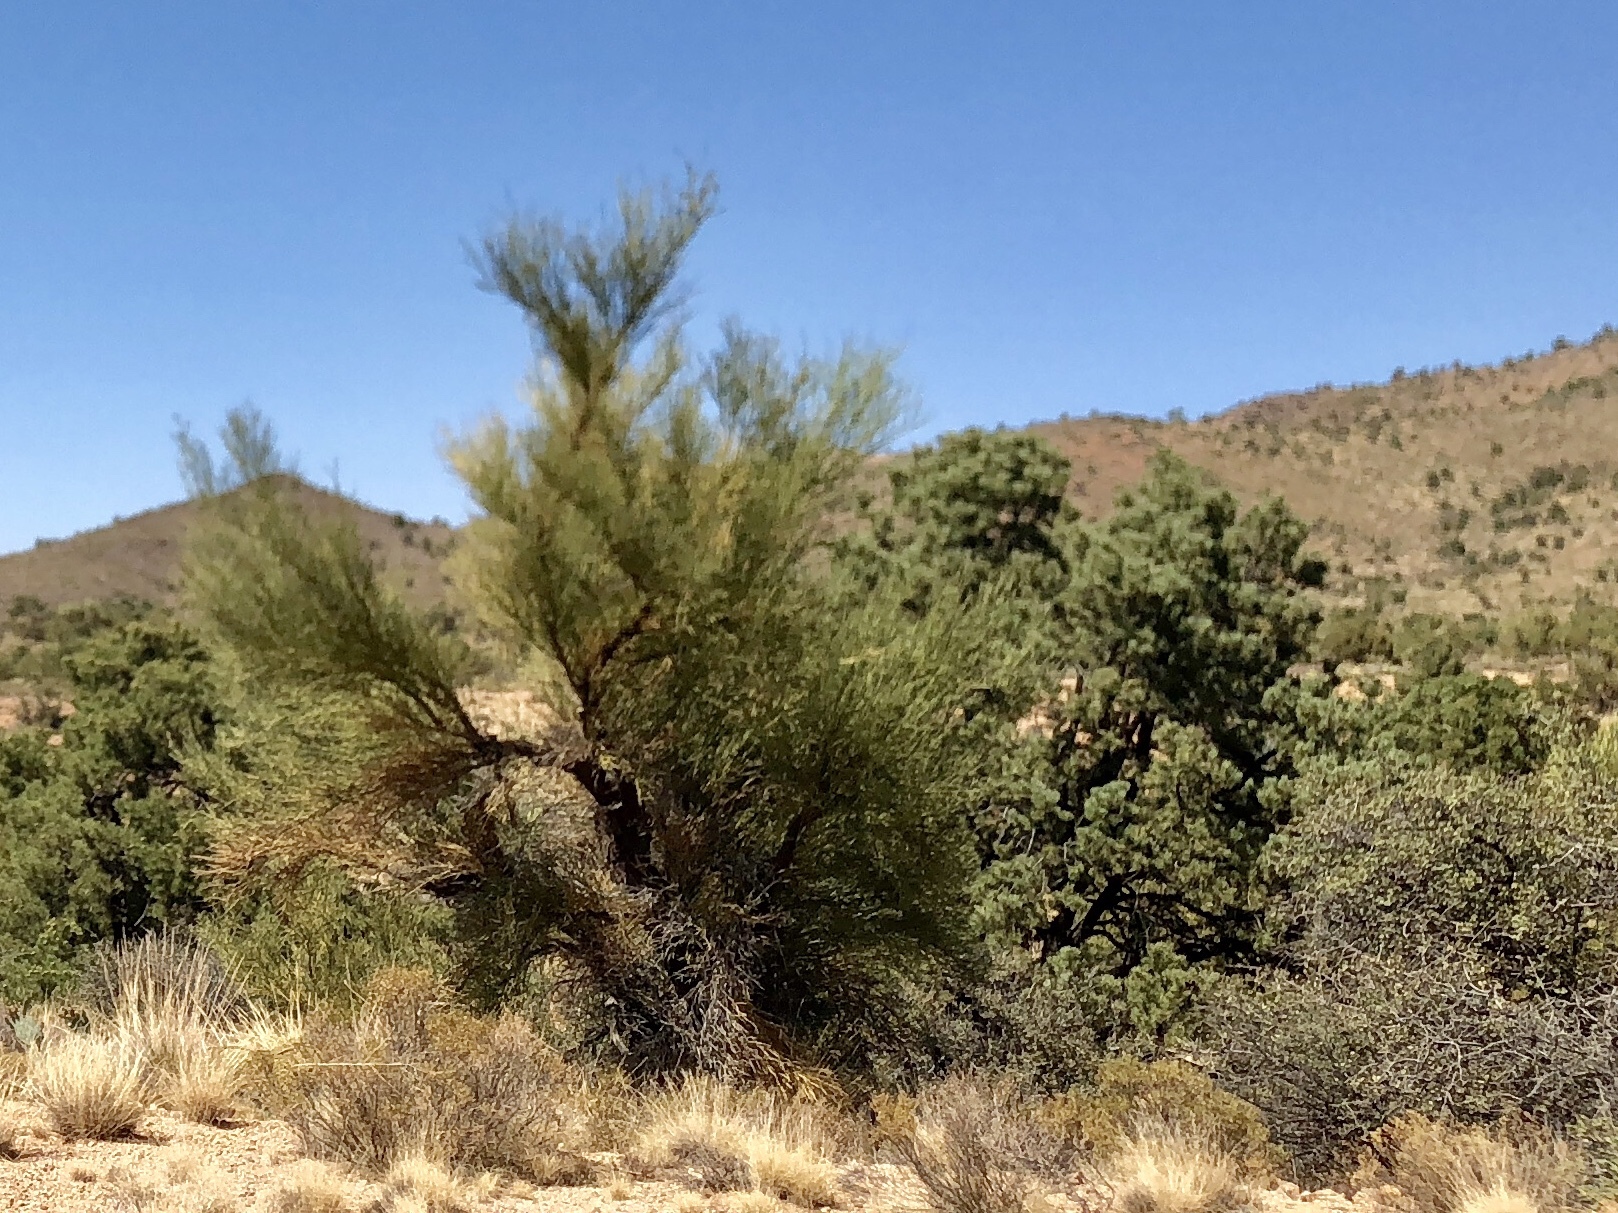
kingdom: Plantae
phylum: Tracheophyta
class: Magnoliopsida
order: Celastrales
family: Celastraceae
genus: Canotia
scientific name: Canotia holacantha
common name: Crucifixion thorns
